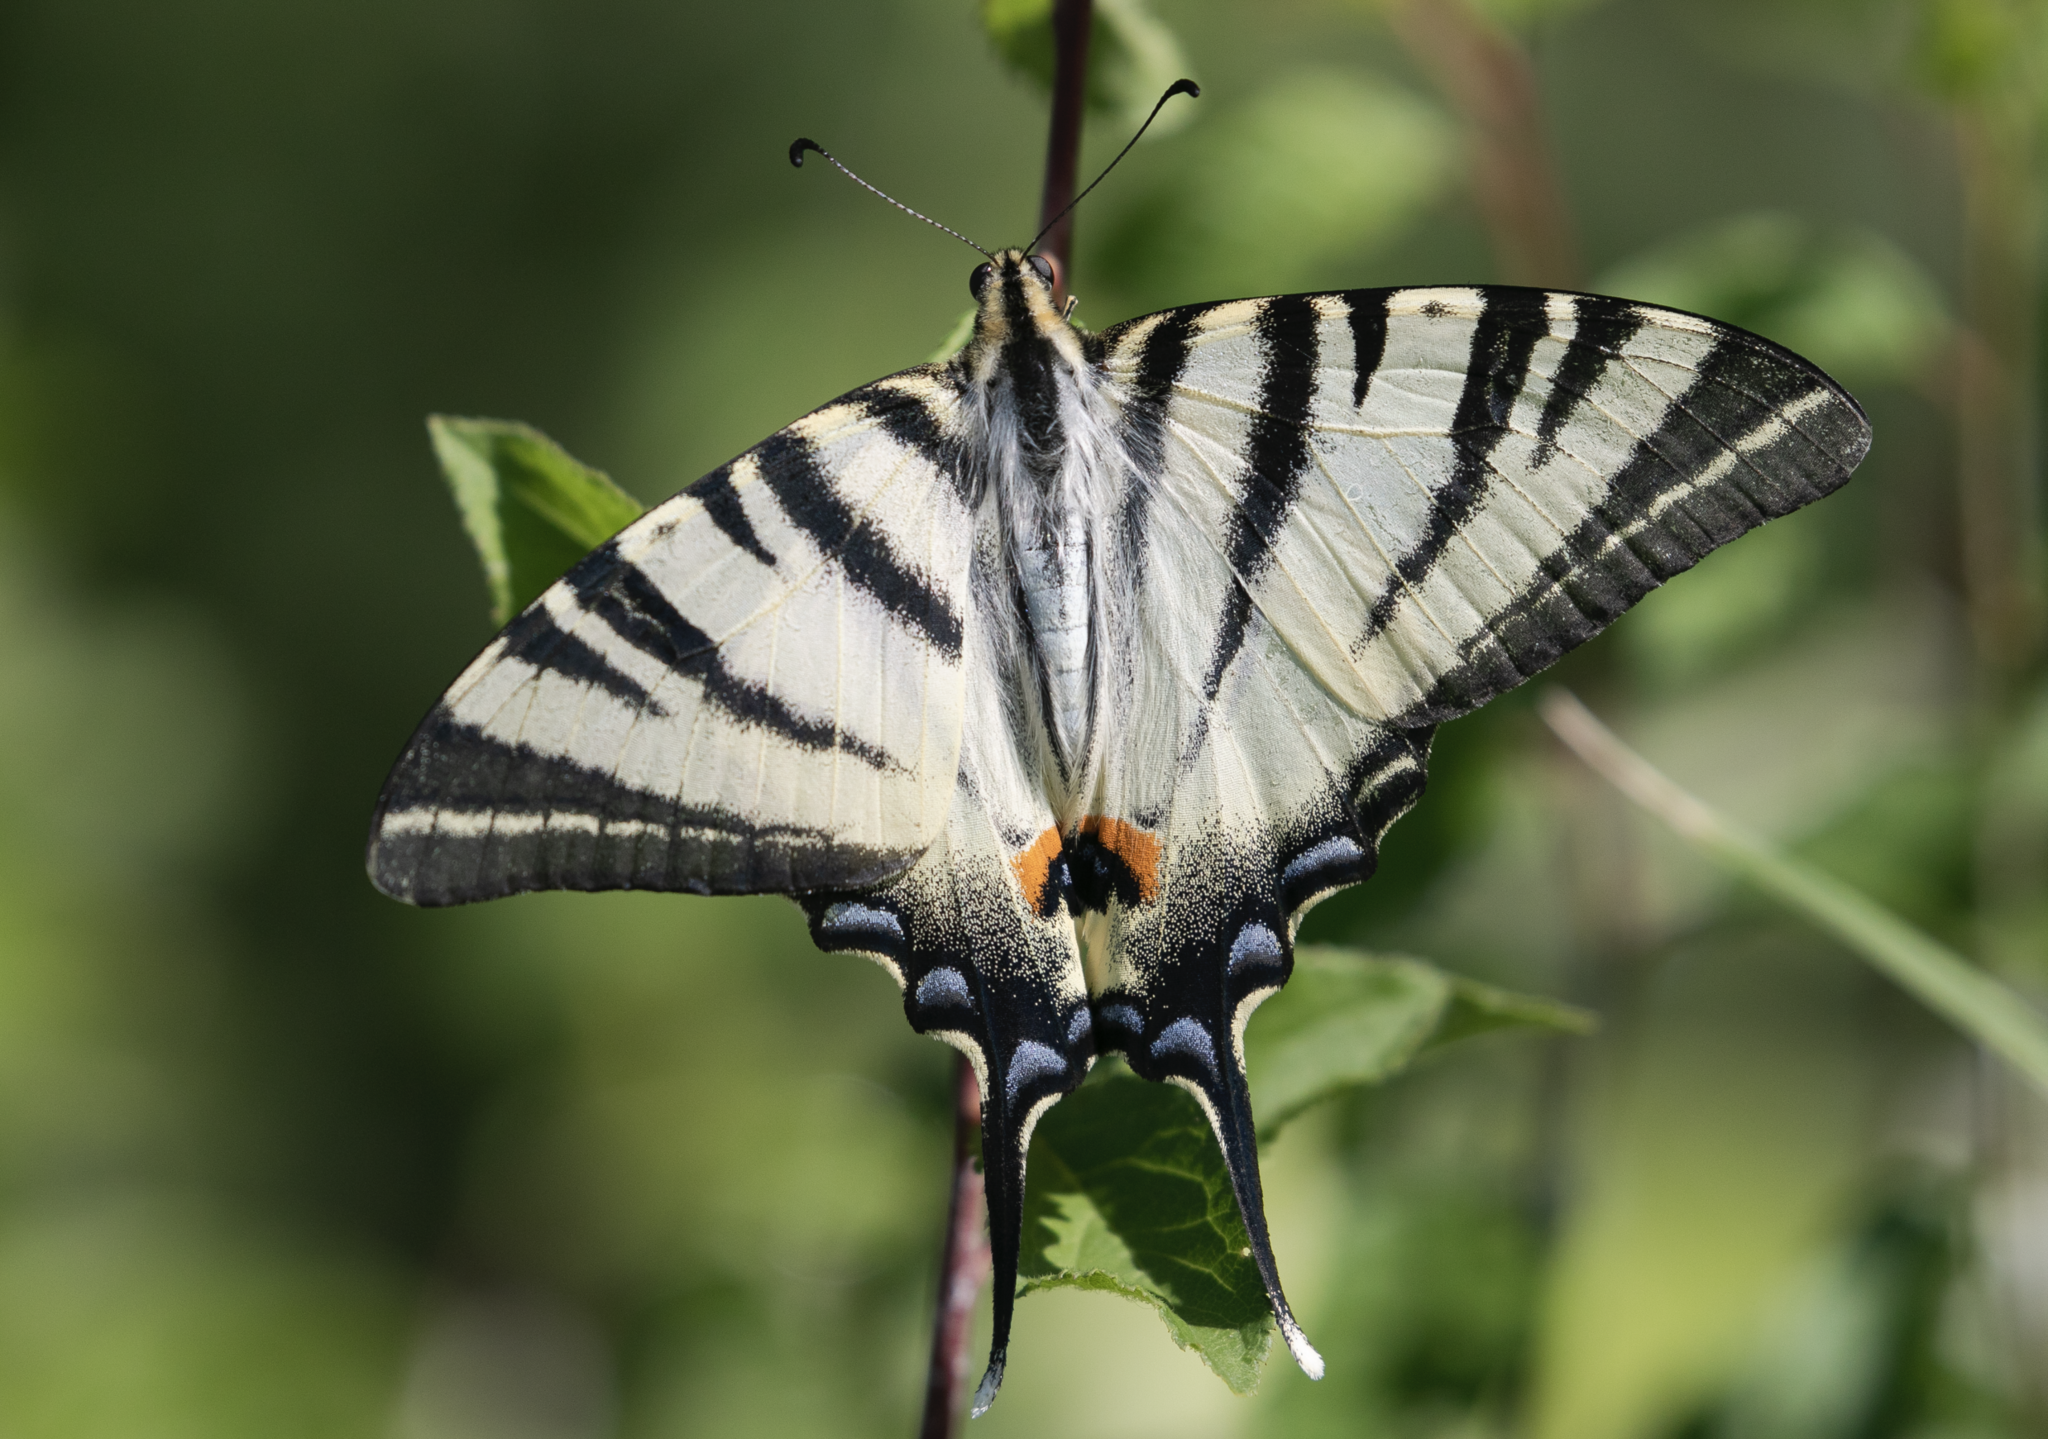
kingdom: Animalia
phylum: Arthropoda
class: Insecta
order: Lepidoptera
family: Papilionidae
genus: Iphiclides
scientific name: Iphiclides podalirius
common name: Scarce swallowtail
